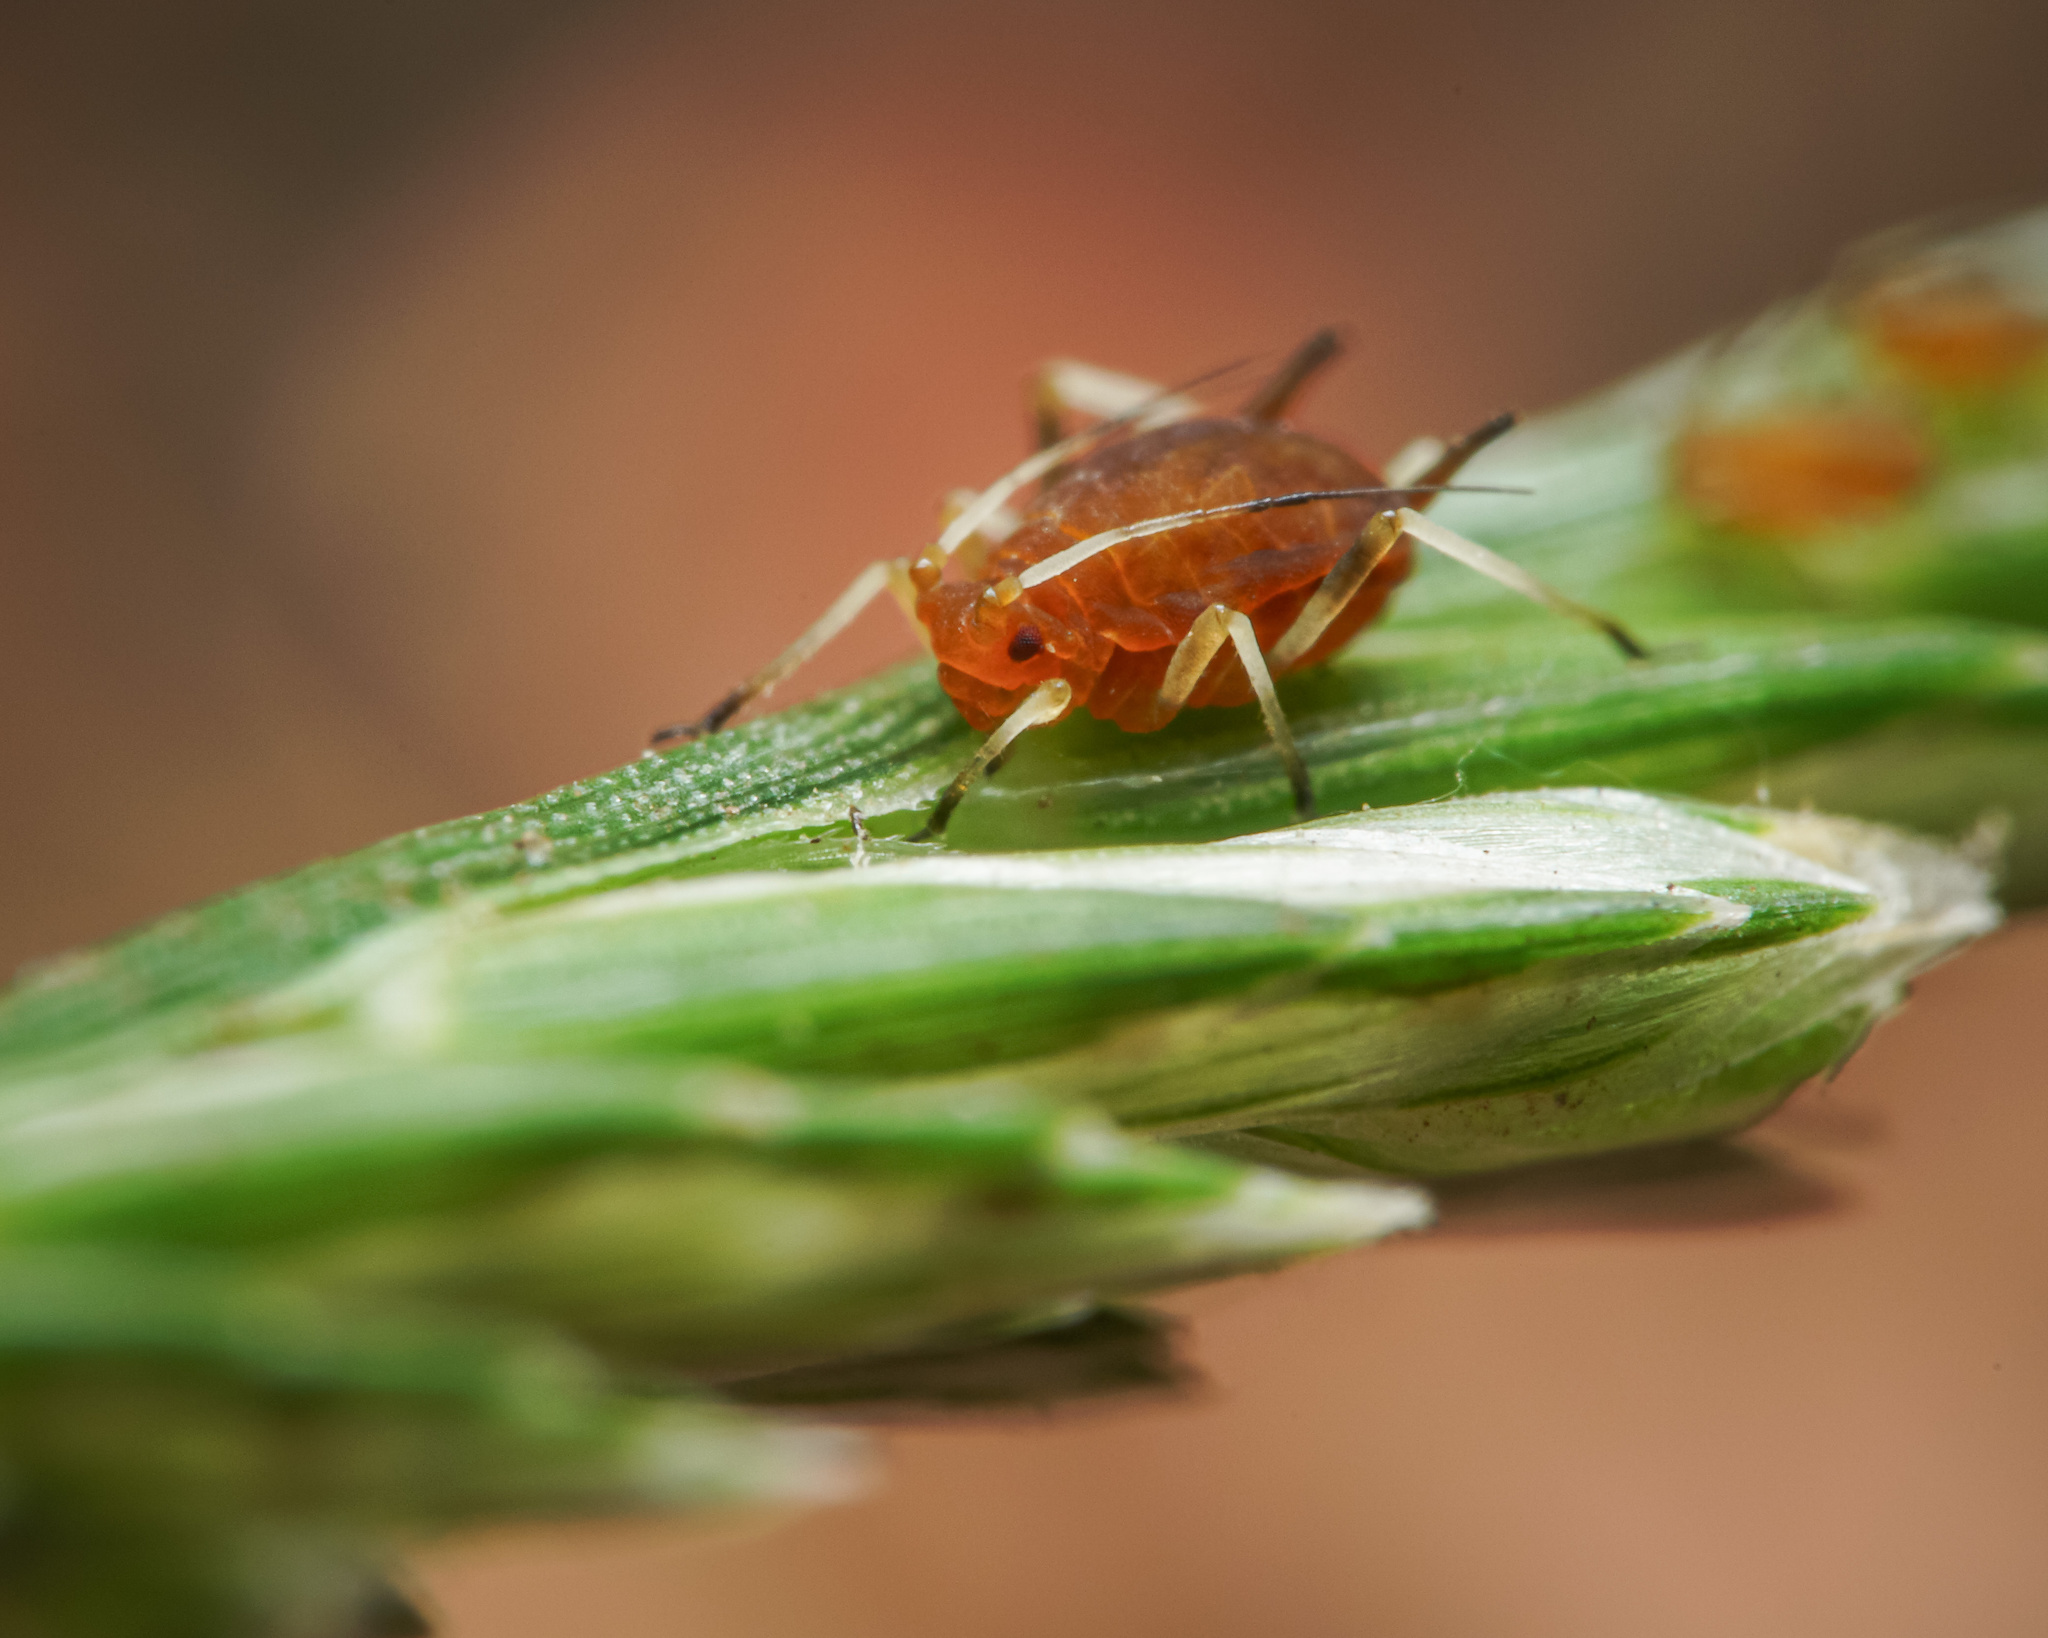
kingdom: Animalia
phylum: Arthropoda
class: Insecta
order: Hemiptera
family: Aphididae
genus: Aphis
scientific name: Aphis gossypii
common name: Melon aphid
